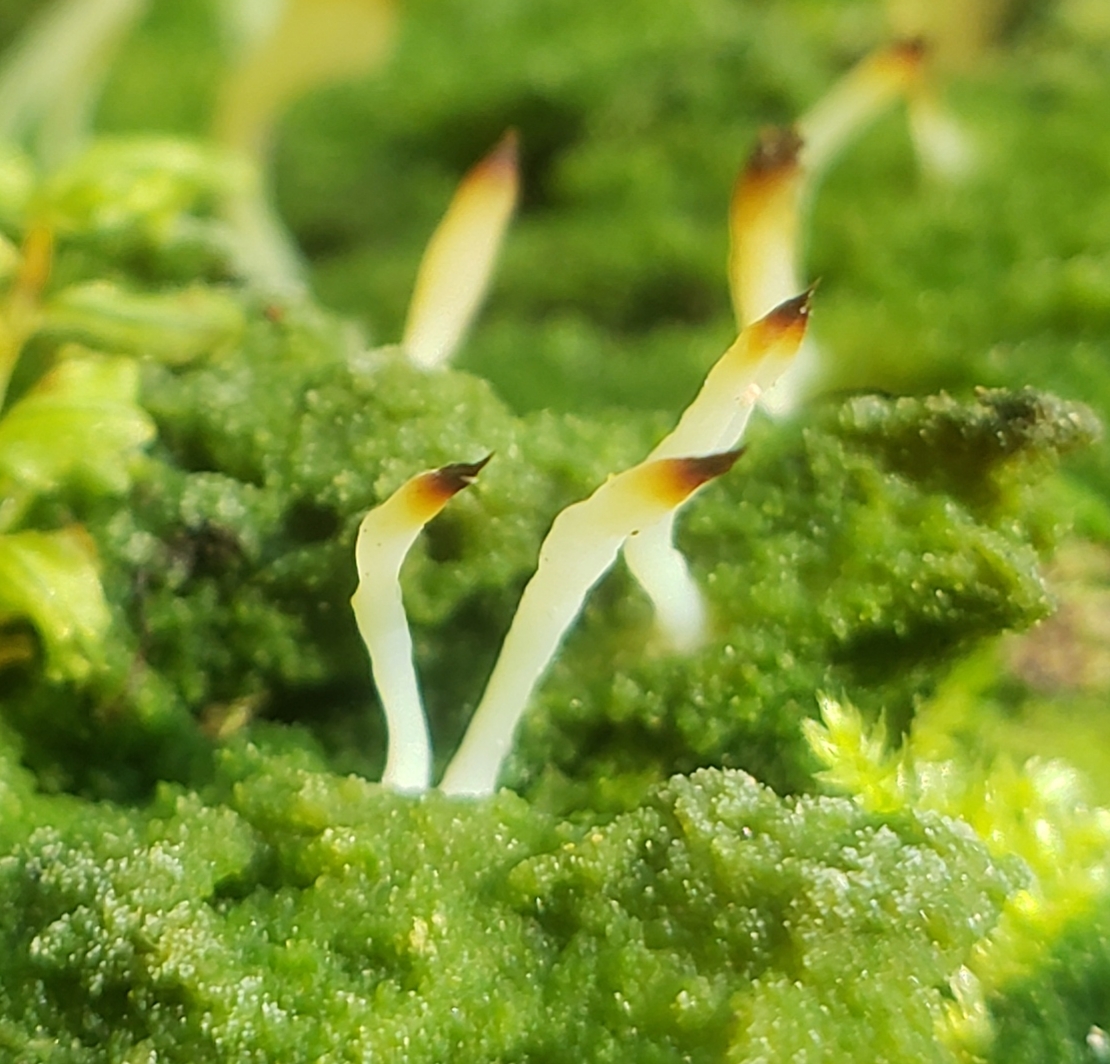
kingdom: Fungi
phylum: Basidiomycota
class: Agaricomycetes
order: Cantharellales
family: Hydnaceae
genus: Multiclavula
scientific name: Multiclavula mucida
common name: White green-algae coral
